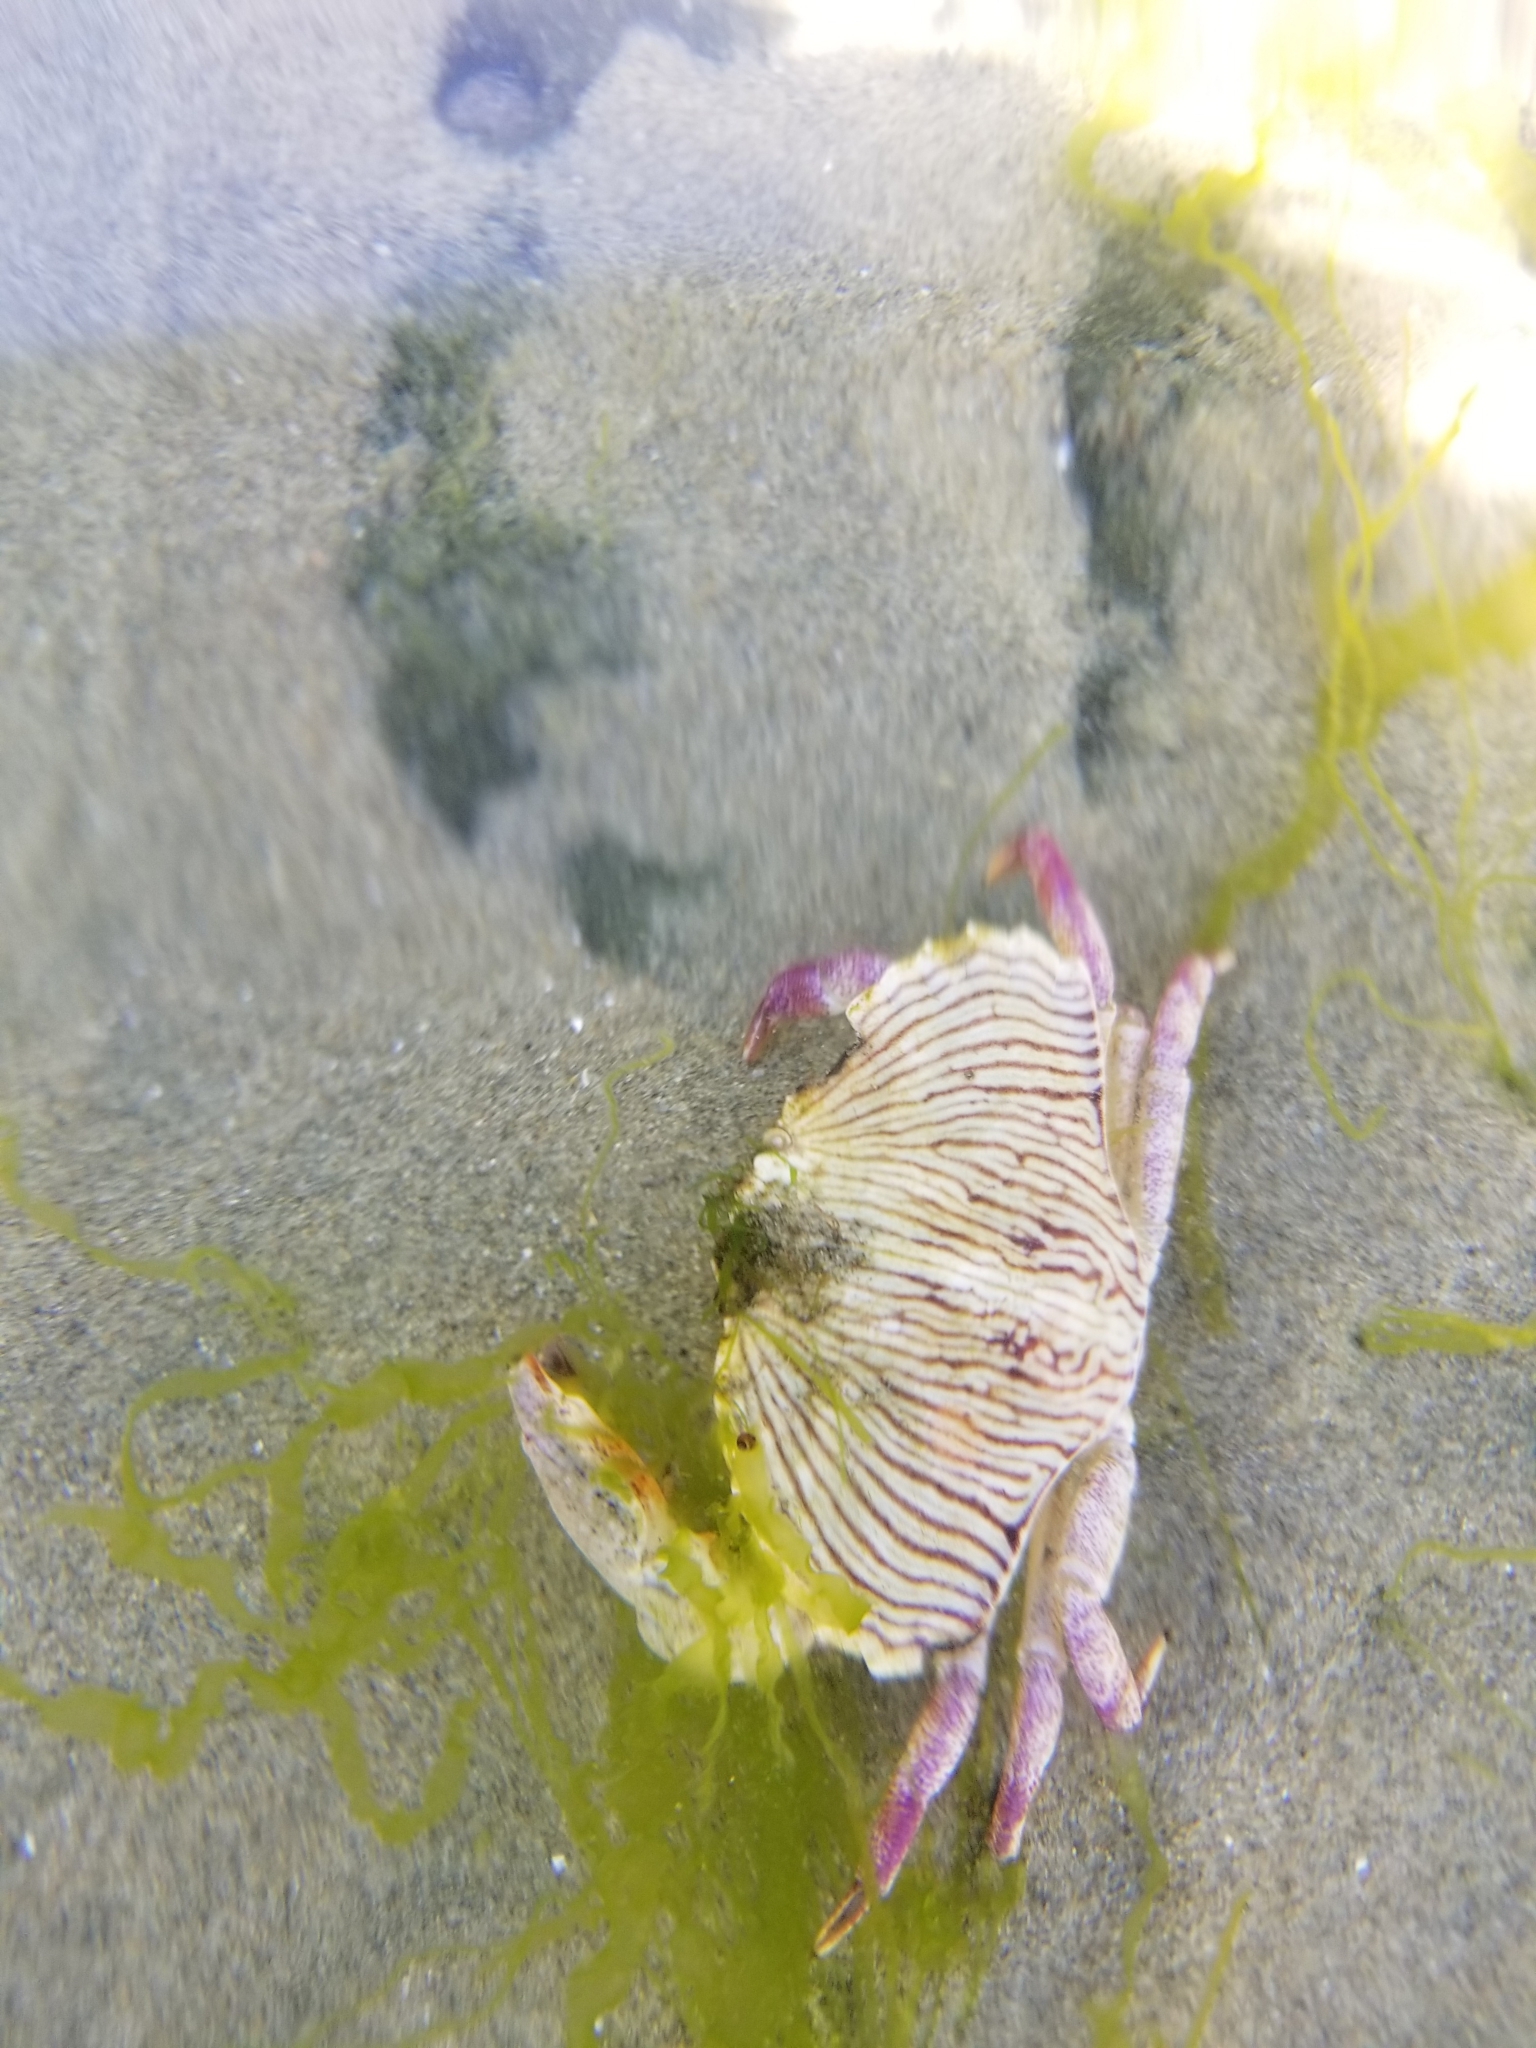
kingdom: Animalia
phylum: Arthropoda
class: Malacostraca
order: Decapoda
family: Cancridae
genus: Cancer
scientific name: Cancer productus
